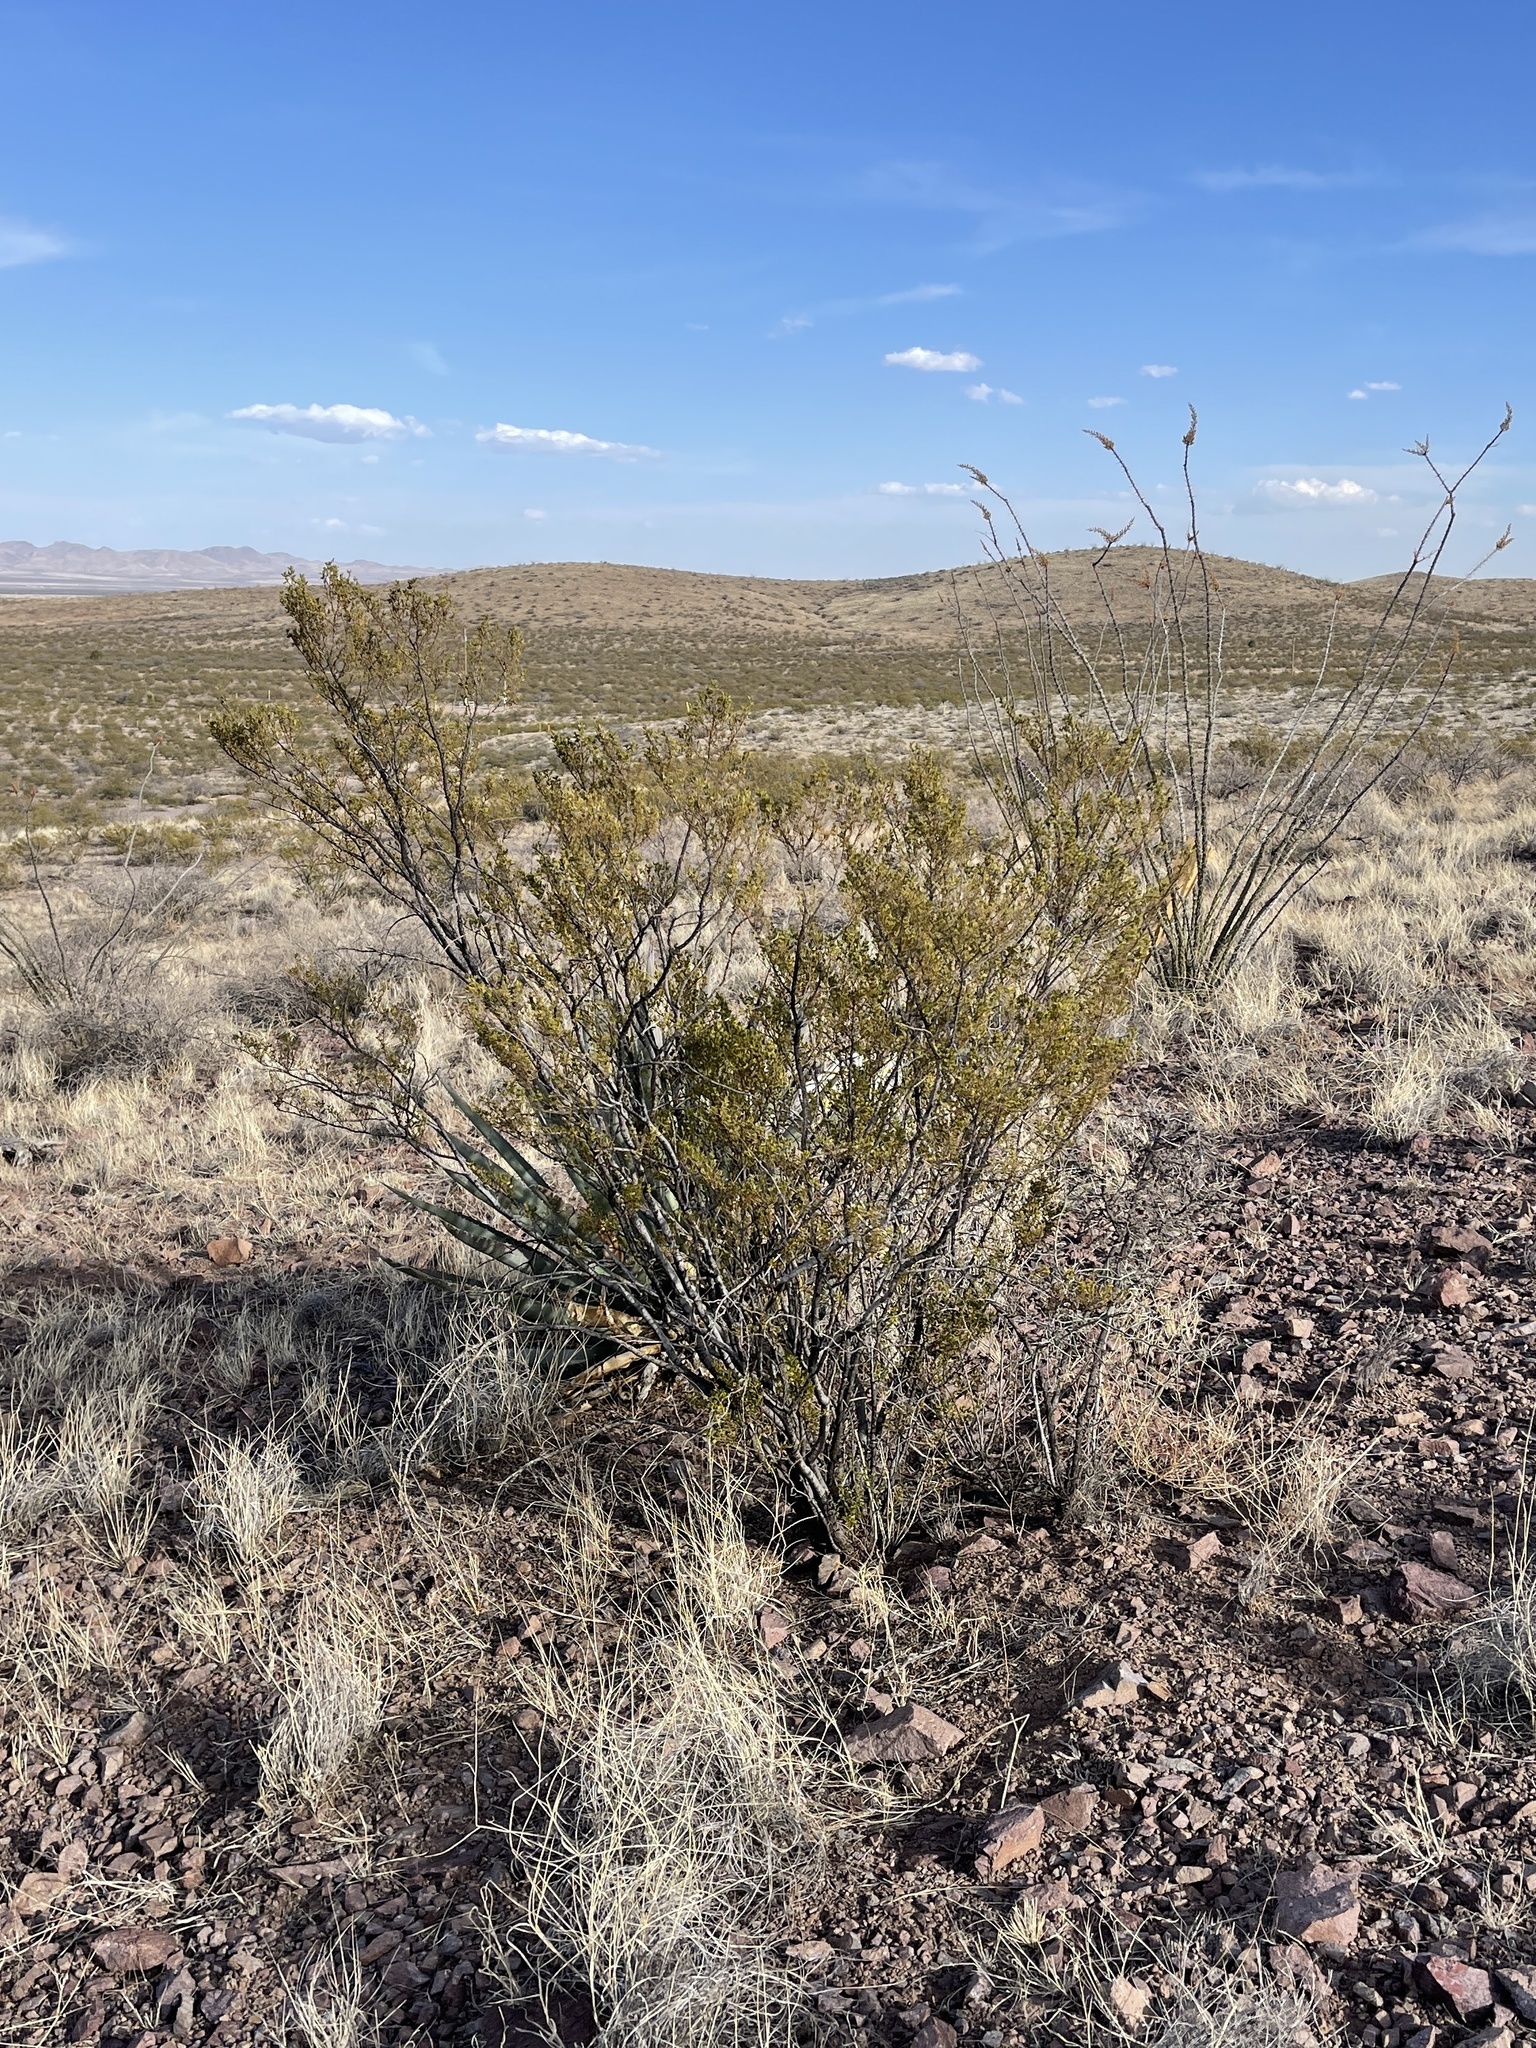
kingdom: Plantae
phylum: Tracheophyta
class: Magnoliopsida
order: Zygophyllales
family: Zygophyllaceae
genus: Larrea
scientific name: Larrea tridentata
